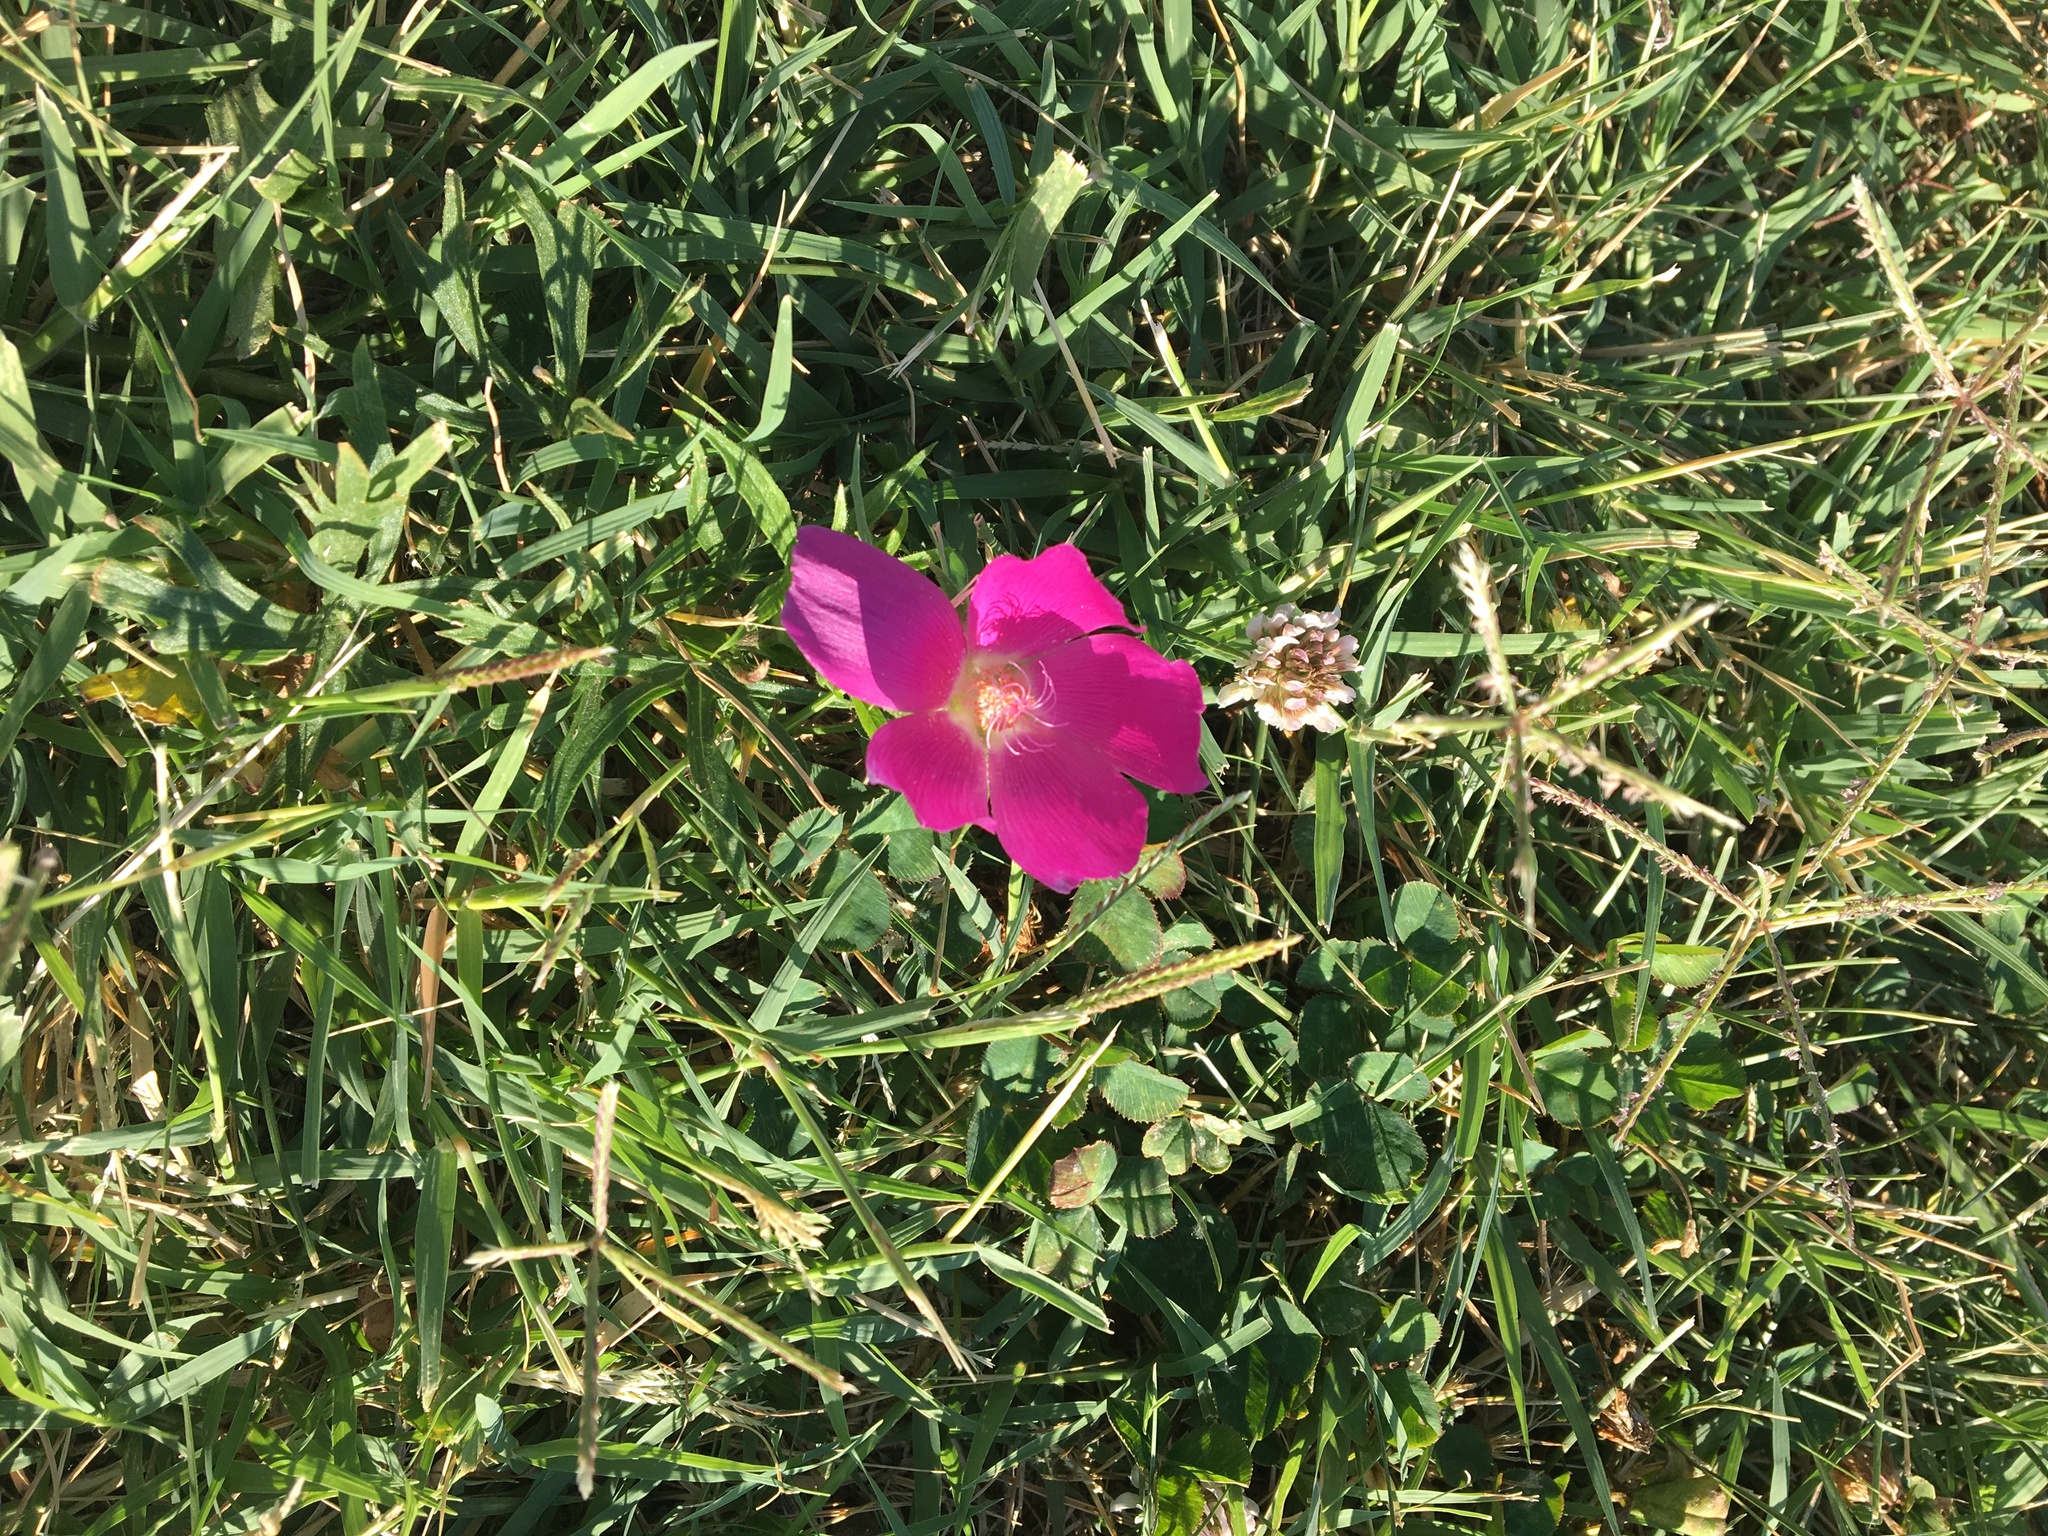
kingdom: Plantae
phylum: Tracheophyta
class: Magnoliopsida
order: Malvales
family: Malvaceae
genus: Callirhoe
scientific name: Callirhoe involucrata
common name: Purple poppy-mallow
